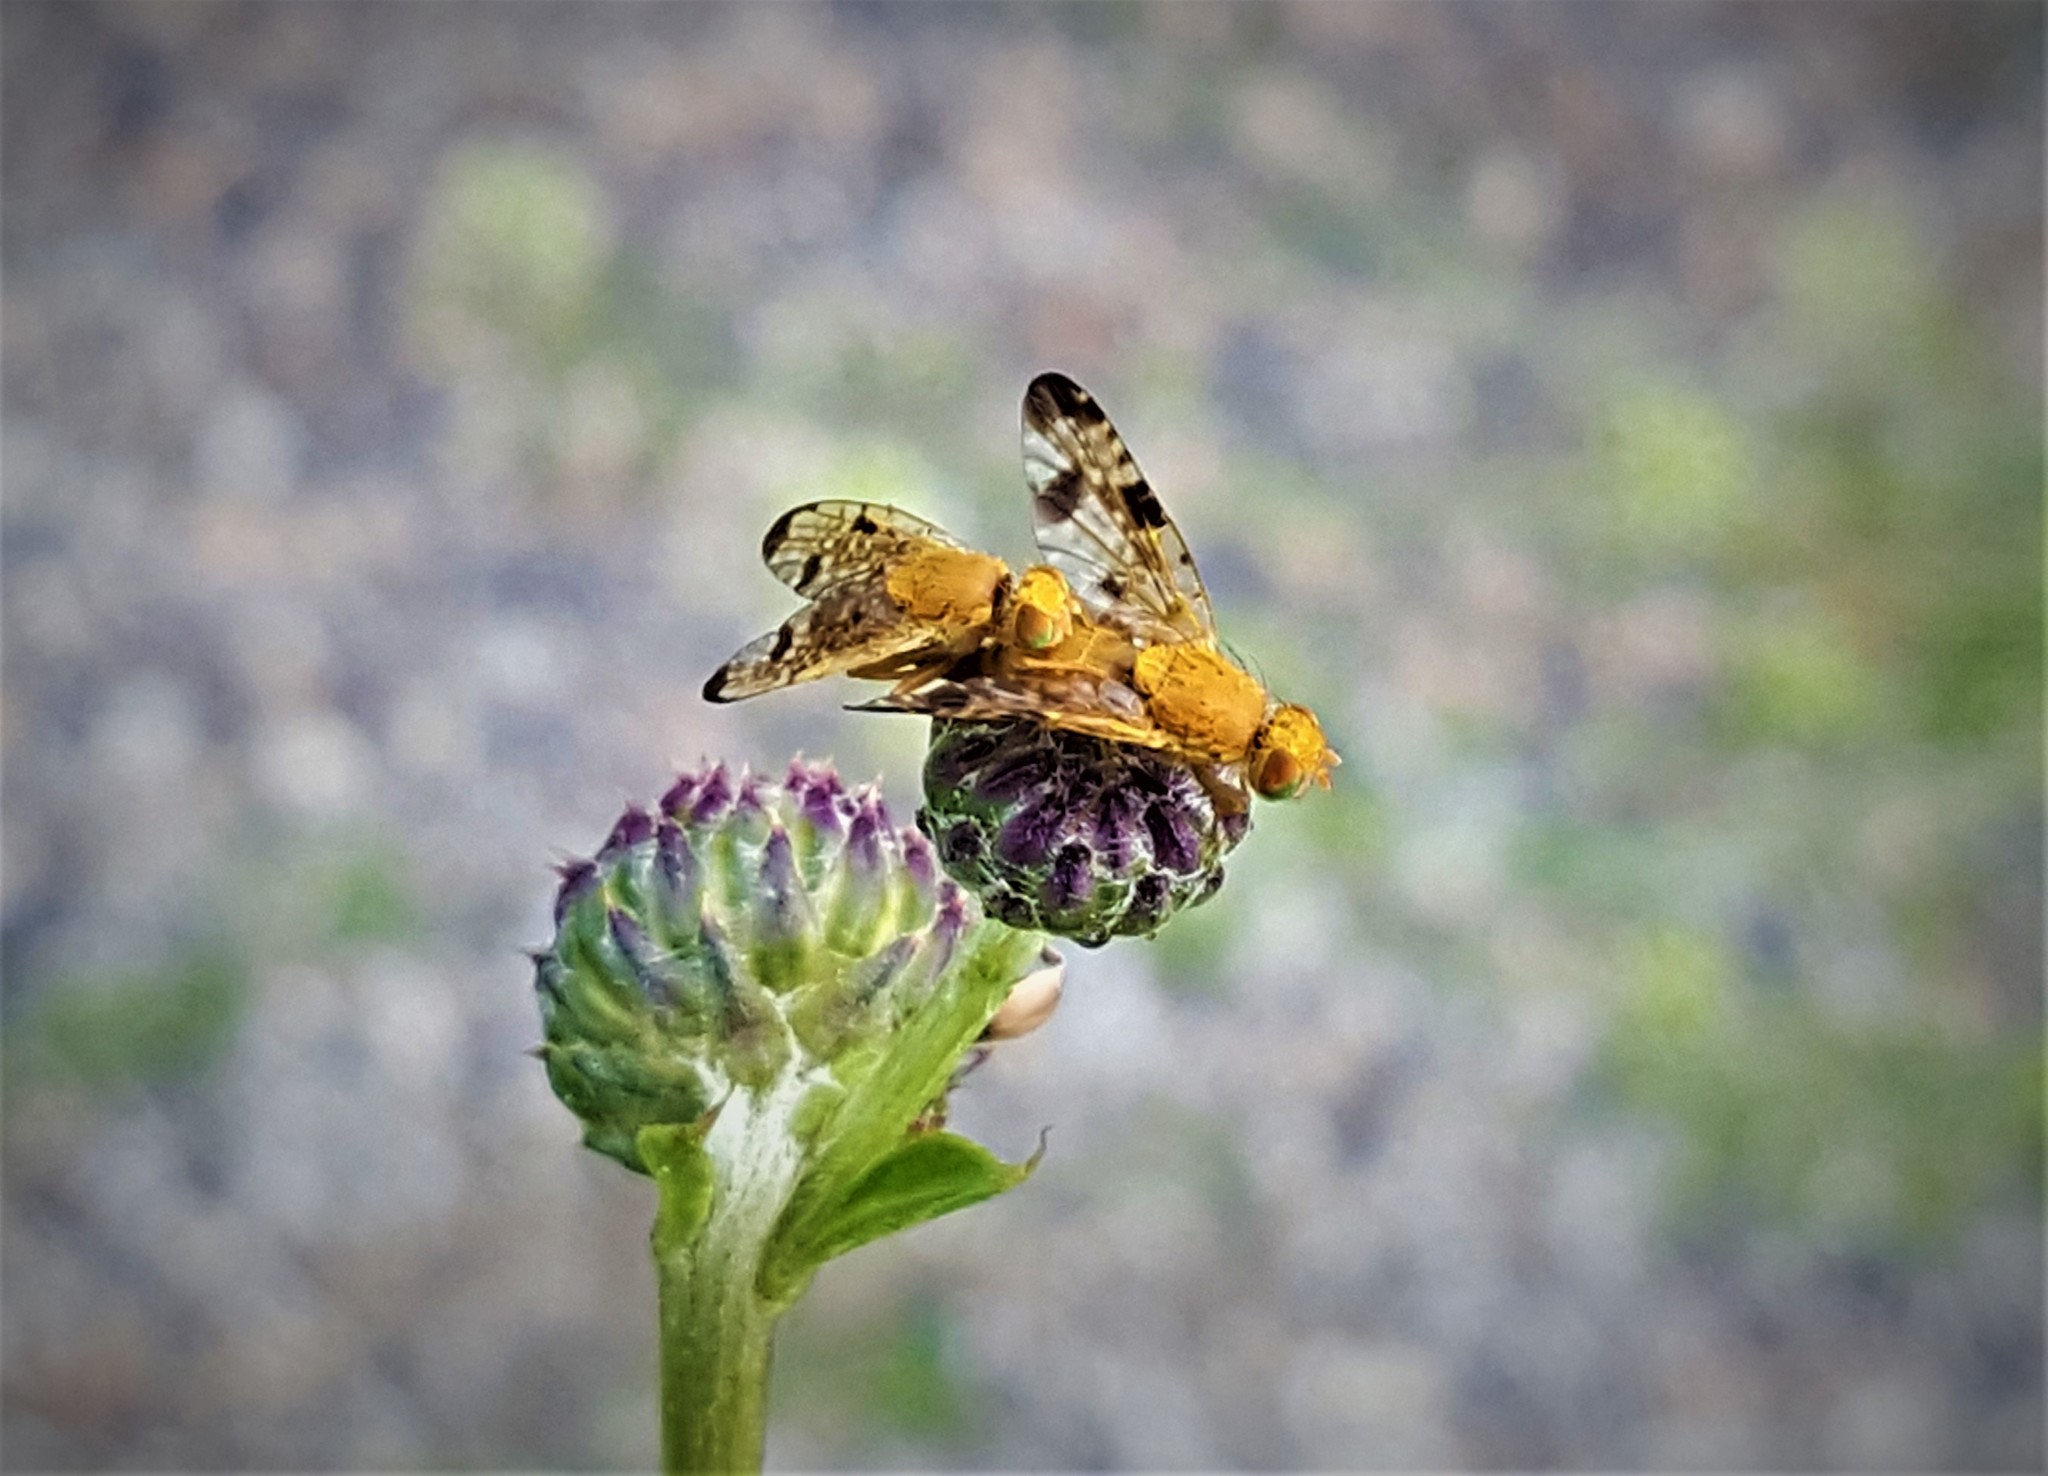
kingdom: Animalia
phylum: Arthropoda
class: Insecta
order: Diptera
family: Tephritidae
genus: Xyphosia
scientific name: Xyphosia miliaria
